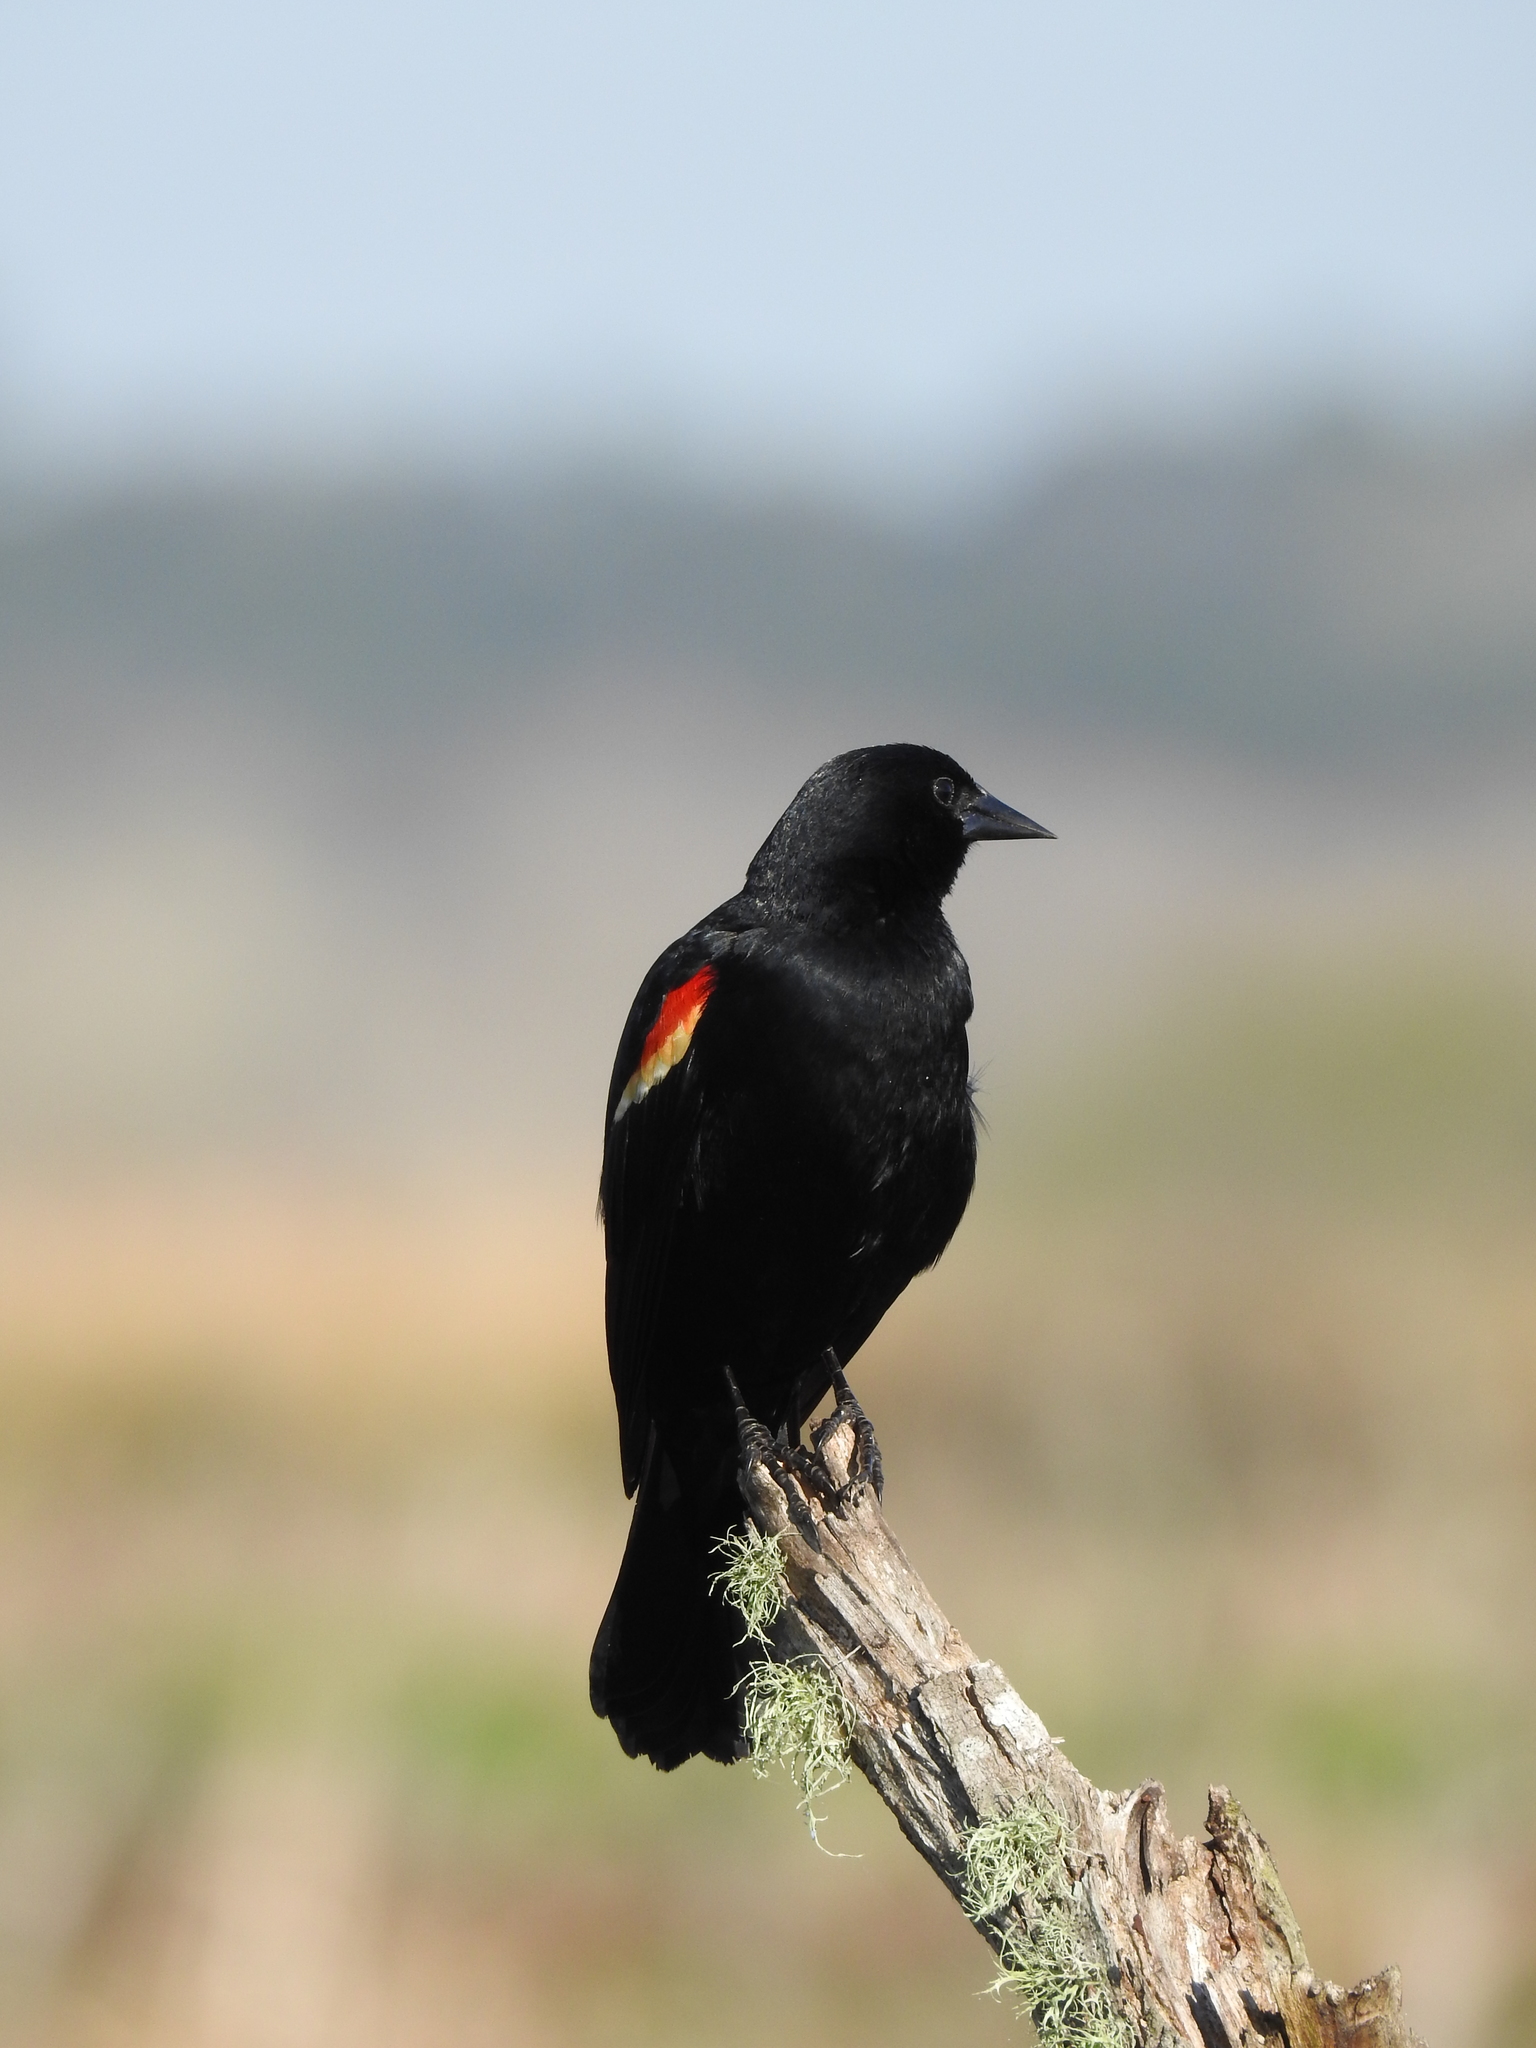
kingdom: Animalia
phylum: Chordata
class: Aves
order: Passeriformes
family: Icteridae
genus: Agelaius
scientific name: Agelaius phoeniceus
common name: Red-winged blackbird
